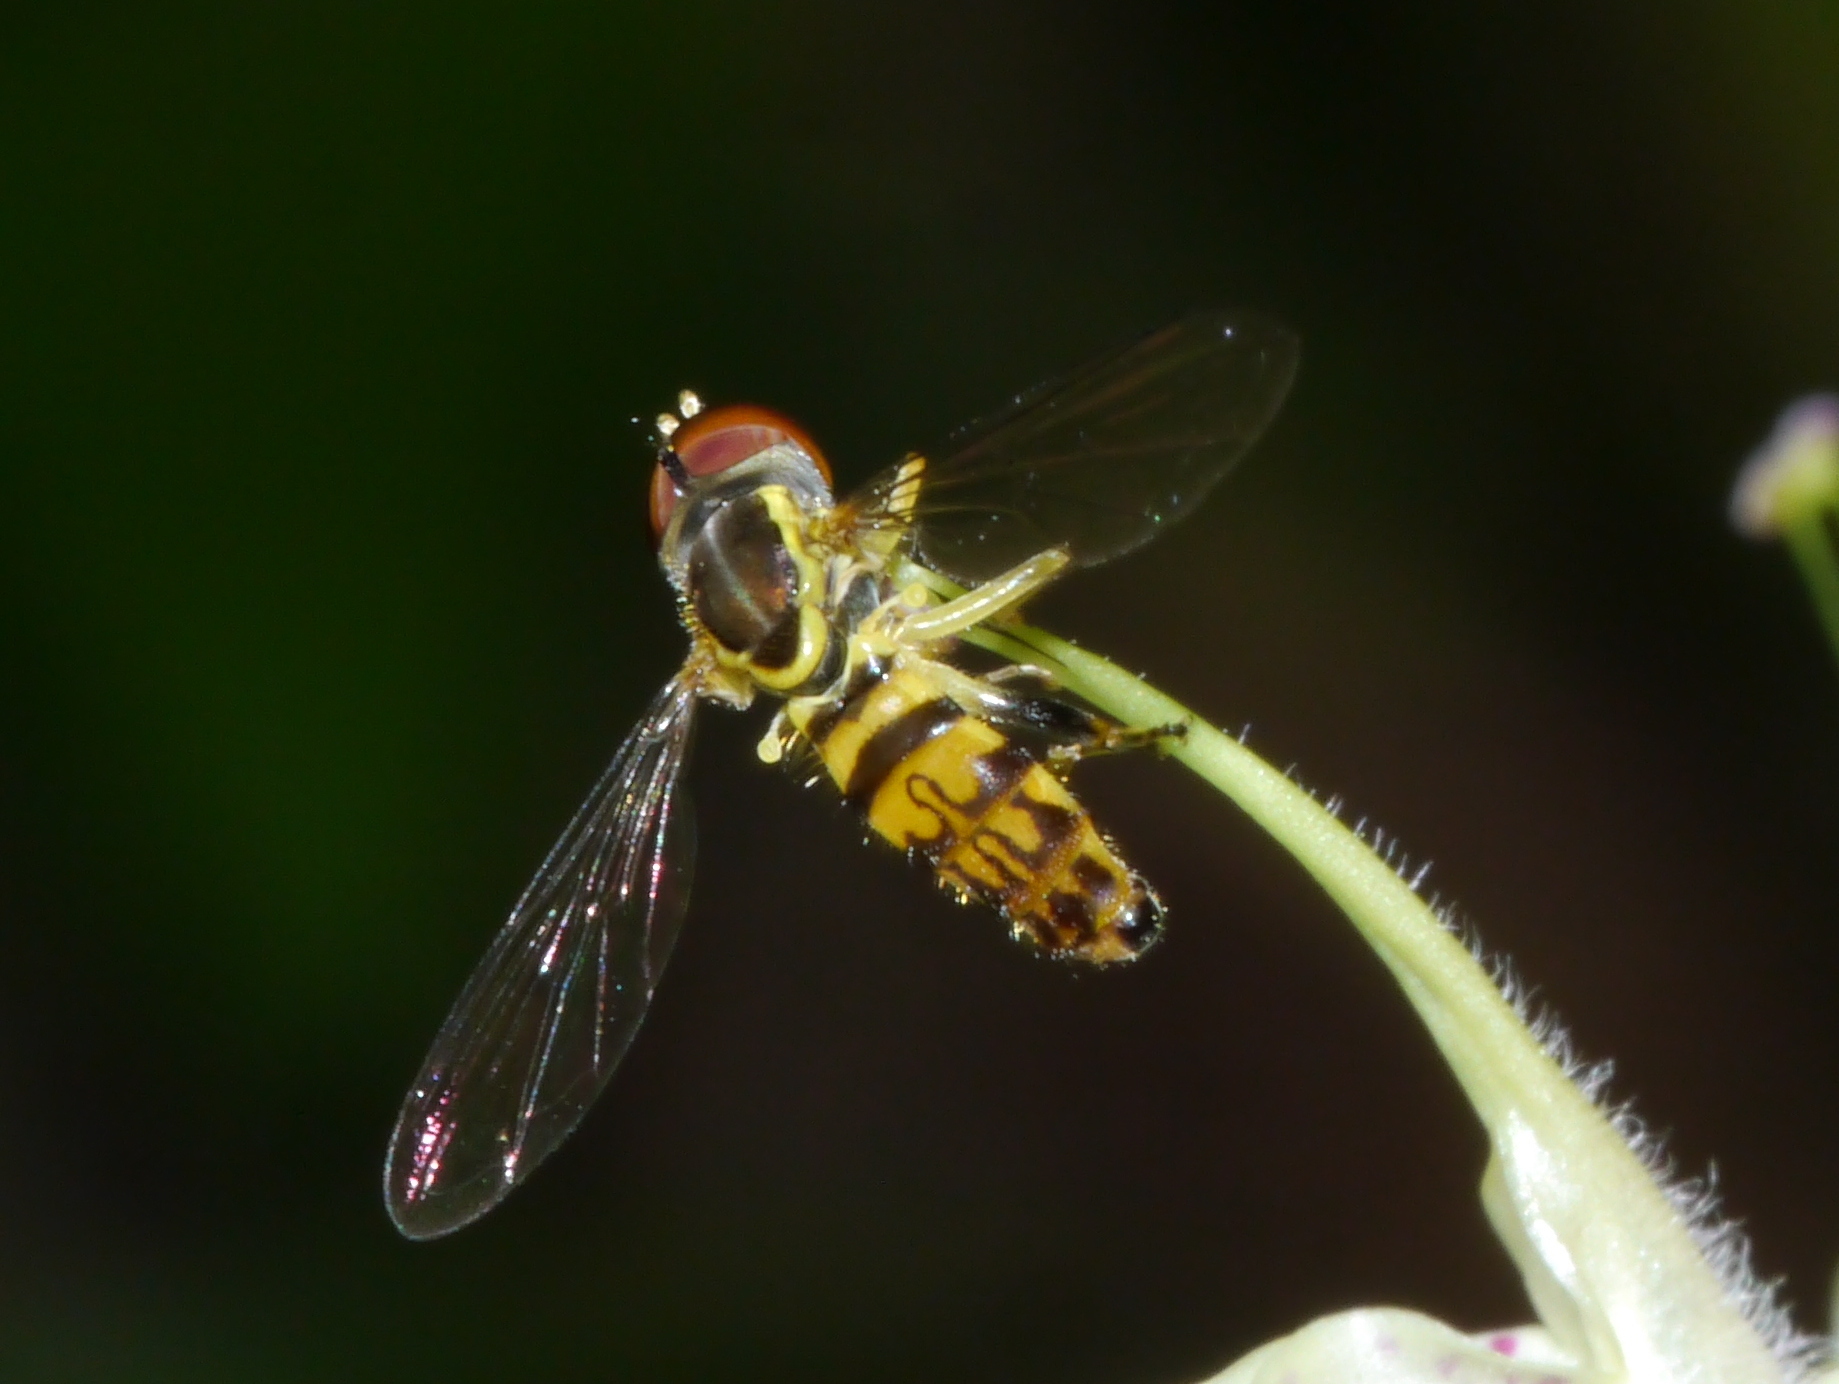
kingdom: Animalia
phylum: Arthropoda
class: Insecta
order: Diptera
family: Syrphidae
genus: Toxomerus
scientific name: Toxomerus geminatus
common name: Eastern calligrapher
